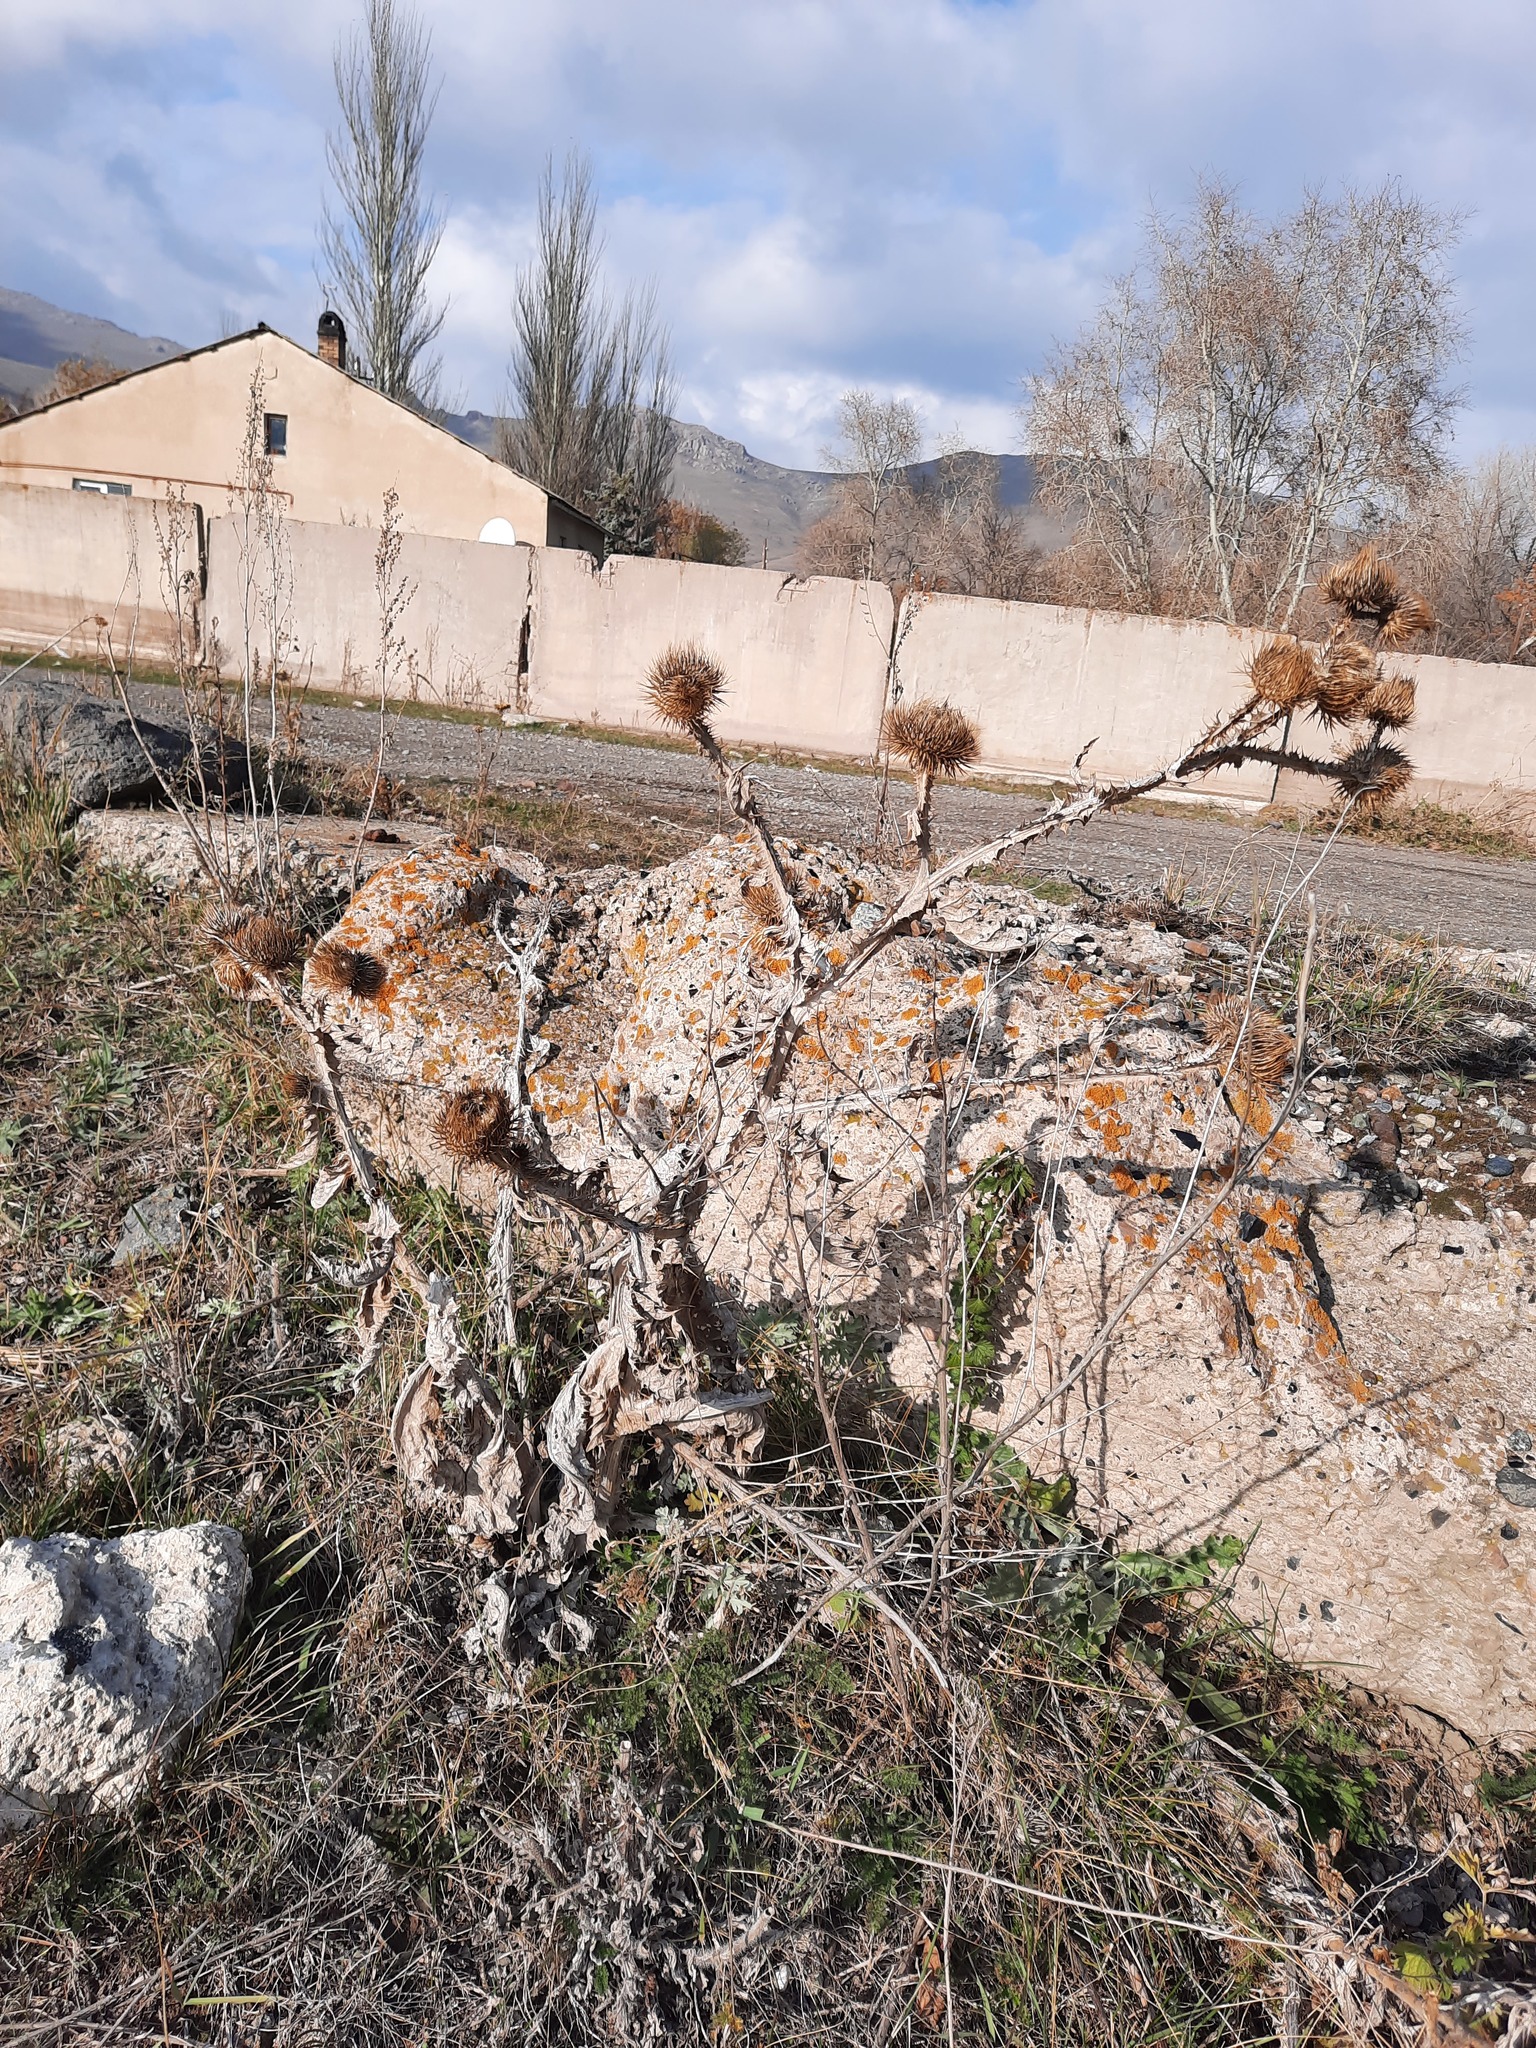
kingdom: Plantae
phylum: Tracheophyta
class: Magnoliopsida
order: Asterales
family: Asteraceae
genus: Onopordum
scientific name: Onopordum acanthium
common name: Scotch thistle
